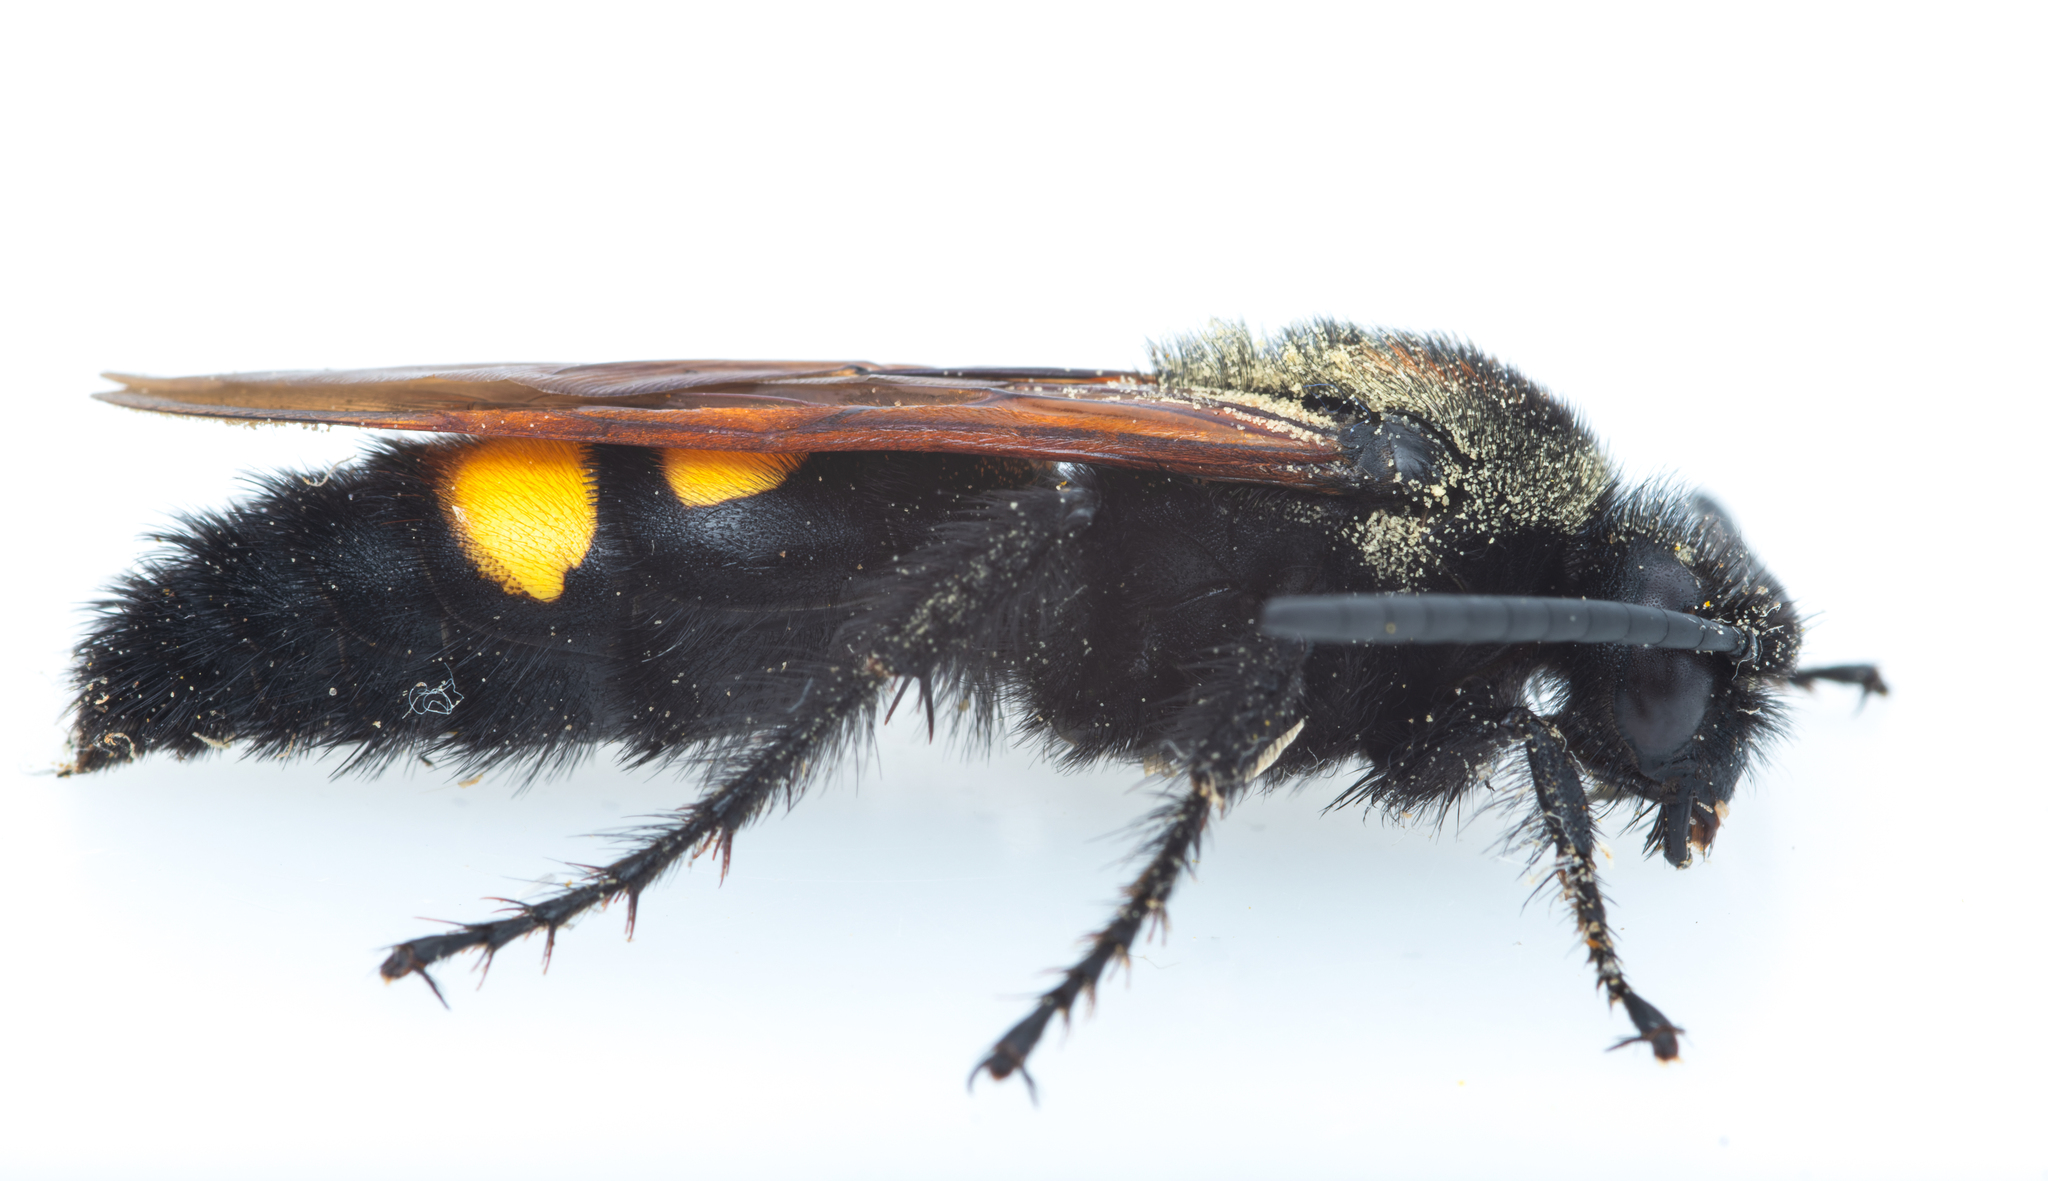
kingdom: Animalia
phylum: Arthropoda
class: Insecta
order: Hymenoptera
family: Scoliidae
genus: Megascolia
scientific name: Megascolia maculata
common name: Mammoth wasp
